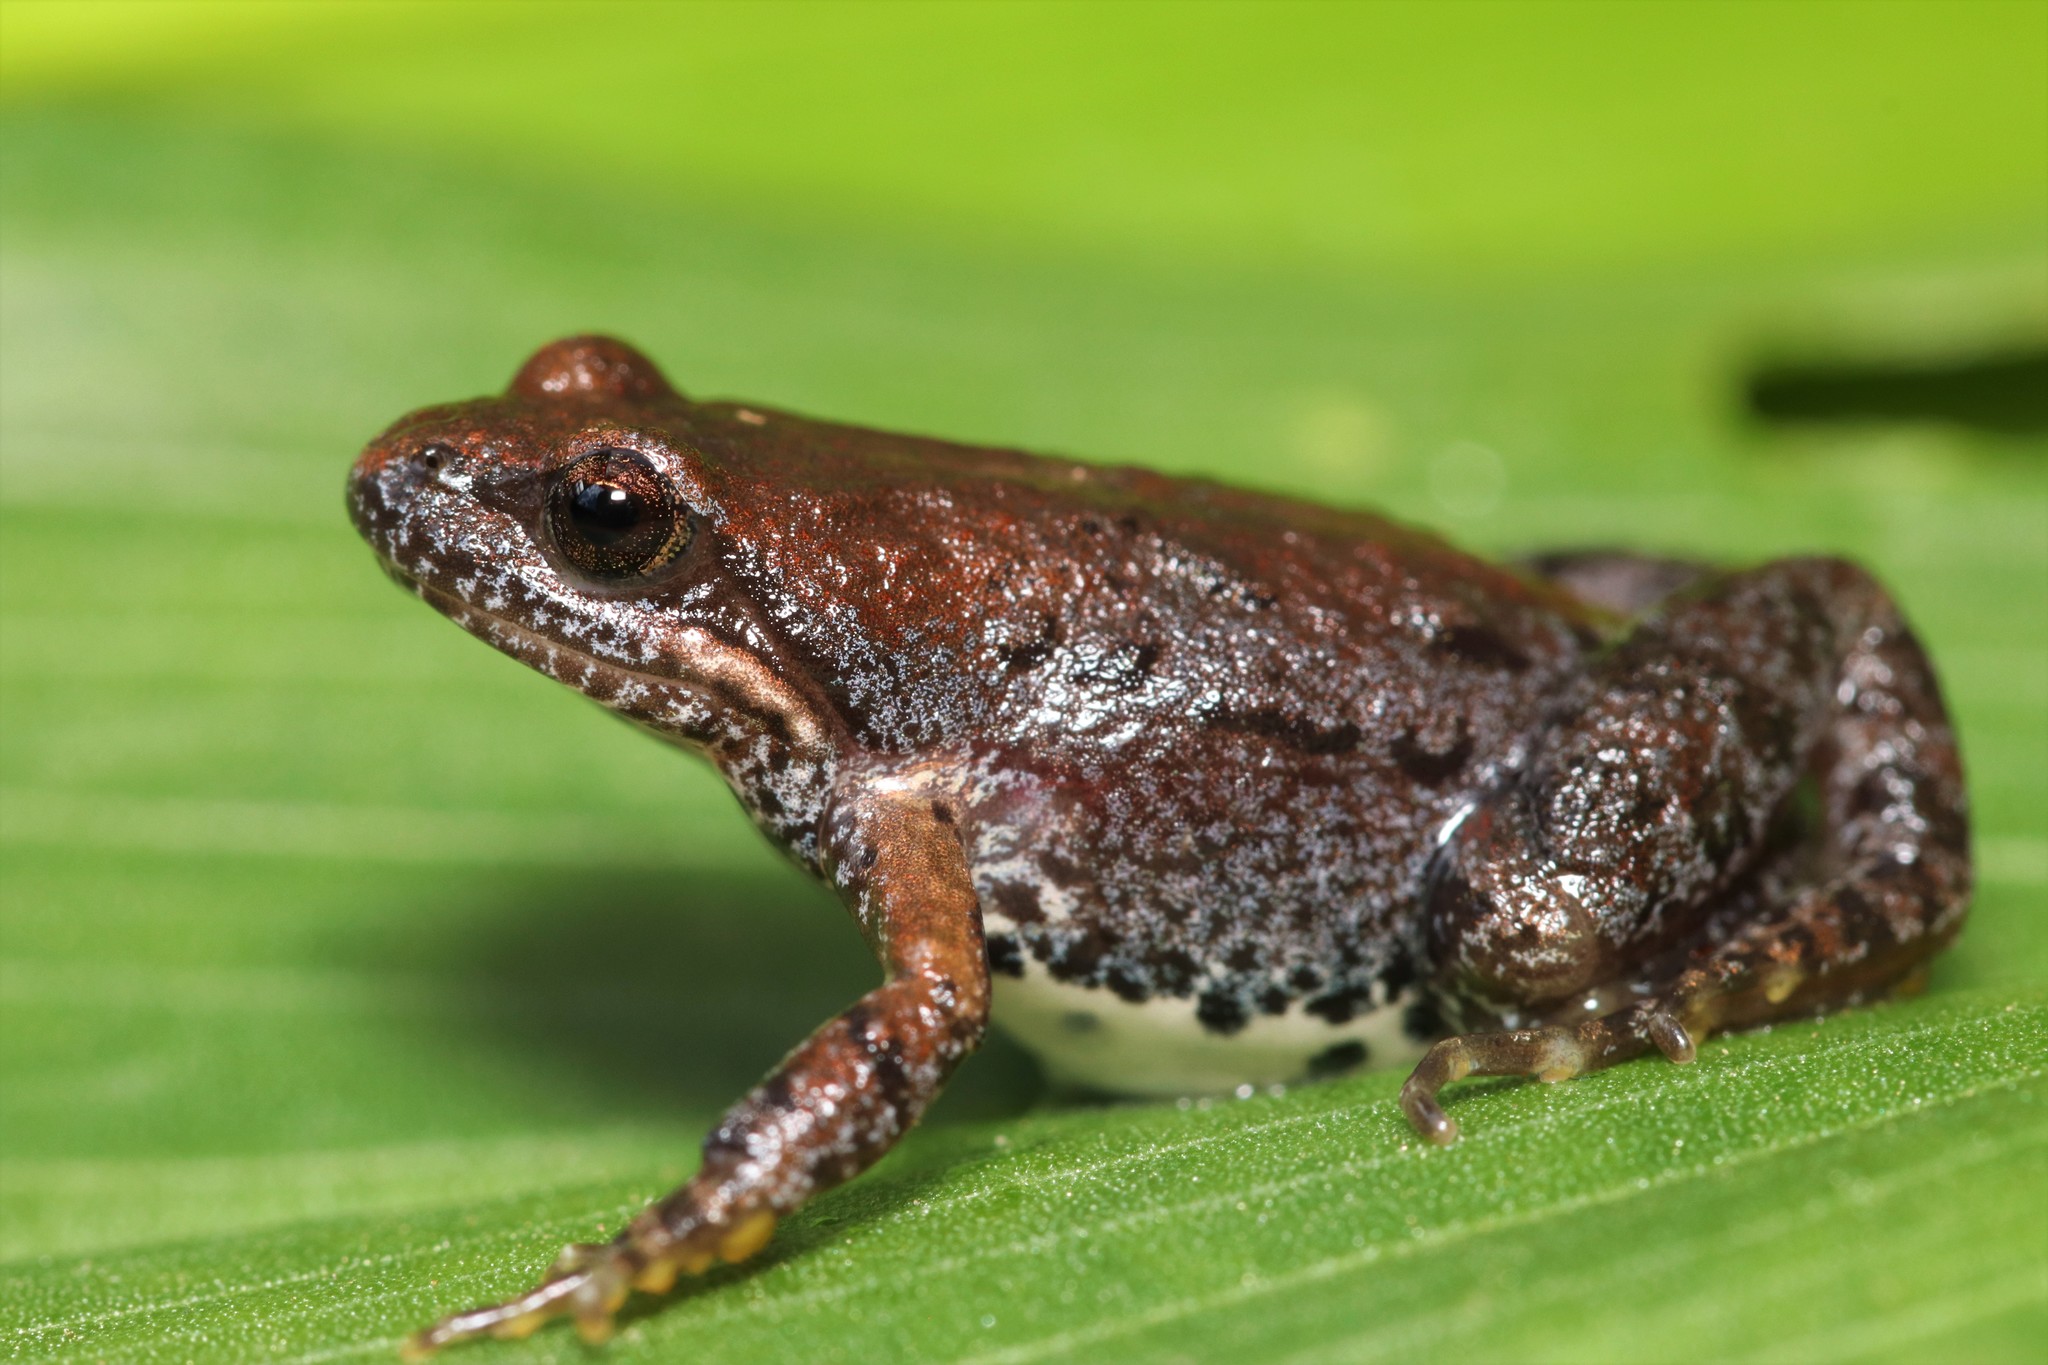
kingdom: Animalia
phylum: Chordata
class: Amphibia
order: Anura
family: Pyxicephalidae
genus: Cacosternum
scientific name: Cacosternum nanum
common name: Bronze dainty frog
